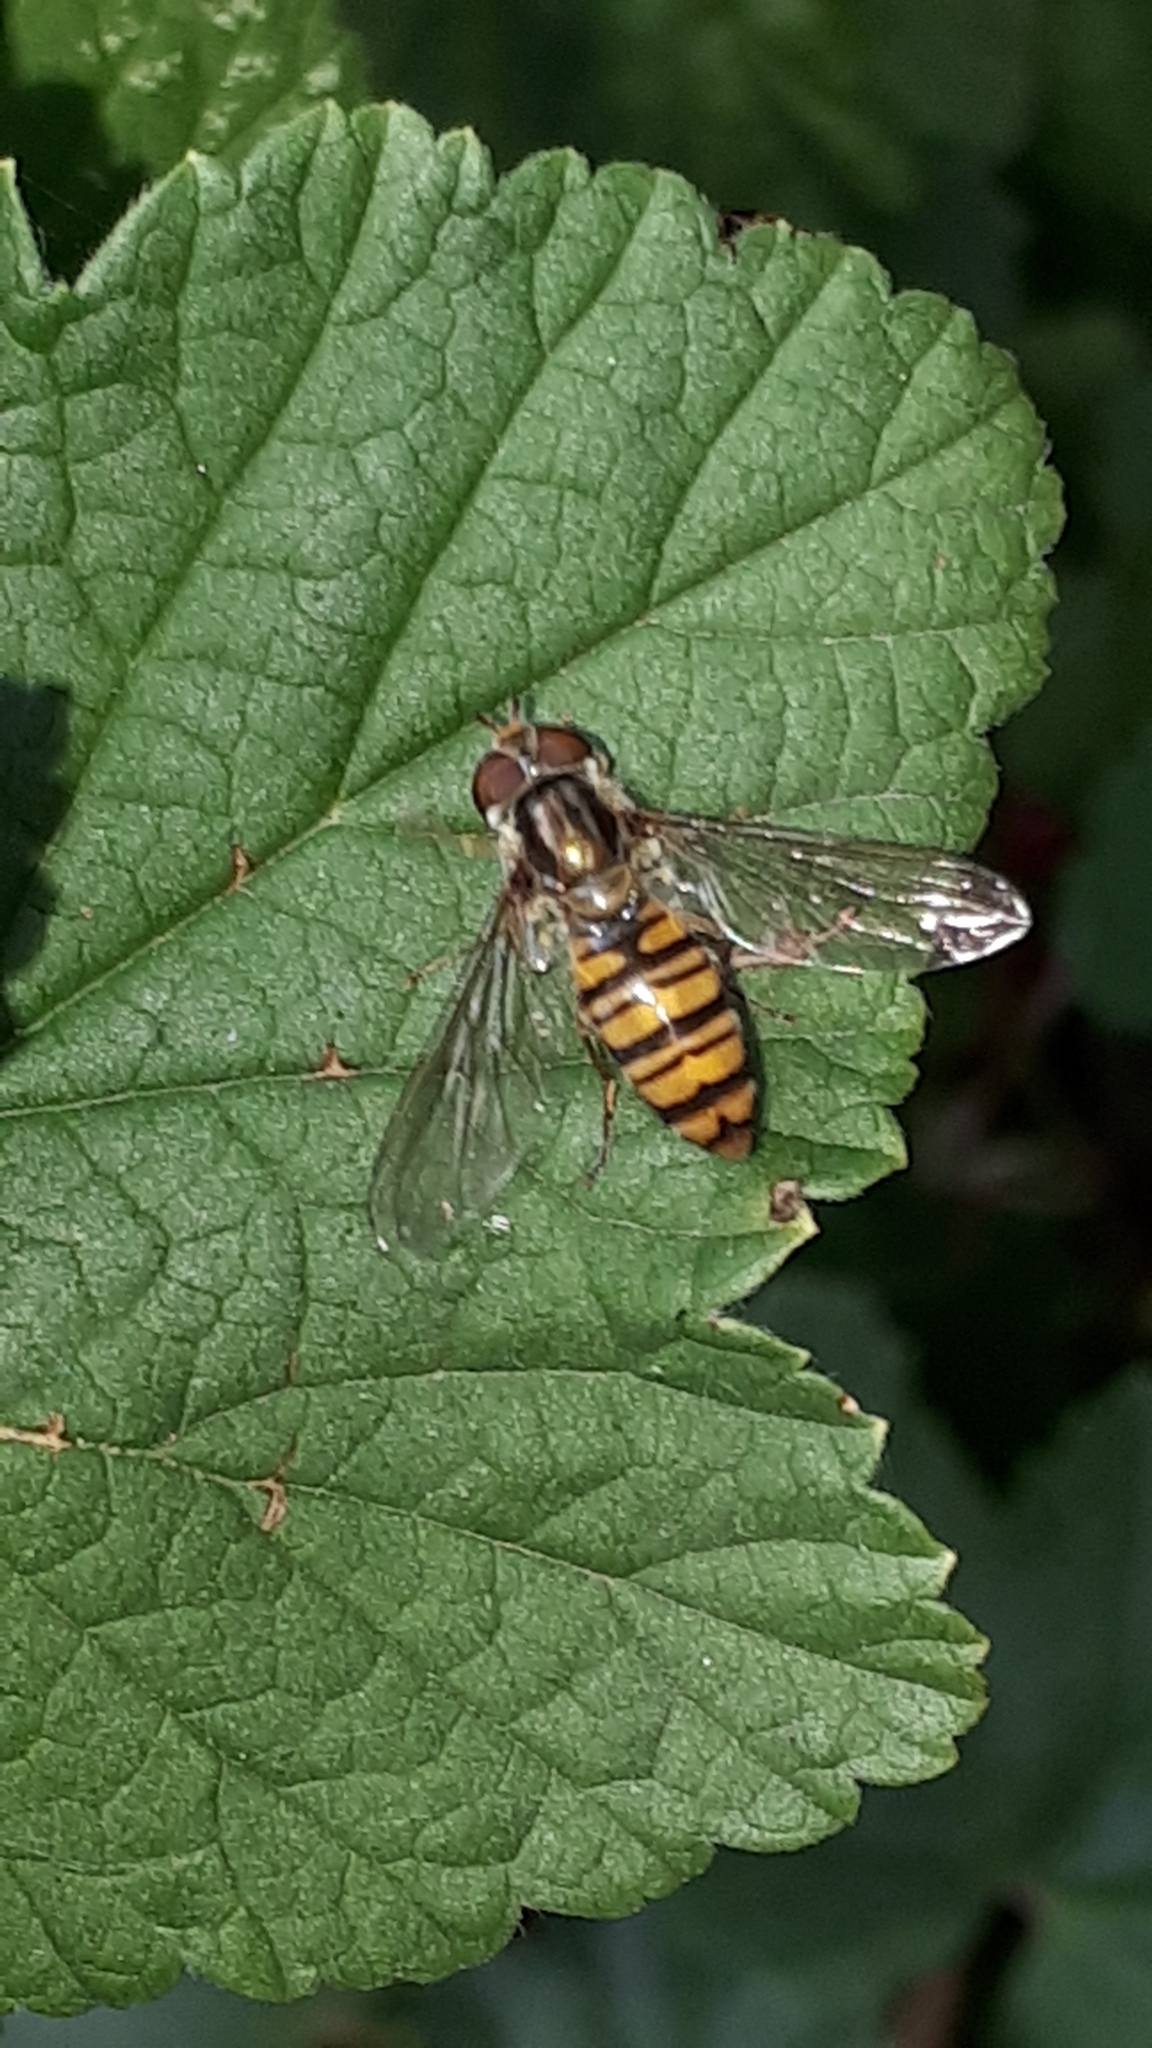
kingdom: Animalia
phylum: Arthropoda
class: Insecta
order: Diptera
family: Syrphidae
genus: Episyrphus
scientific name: Episyrphus balteatus
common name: Marmalade hoverfly
